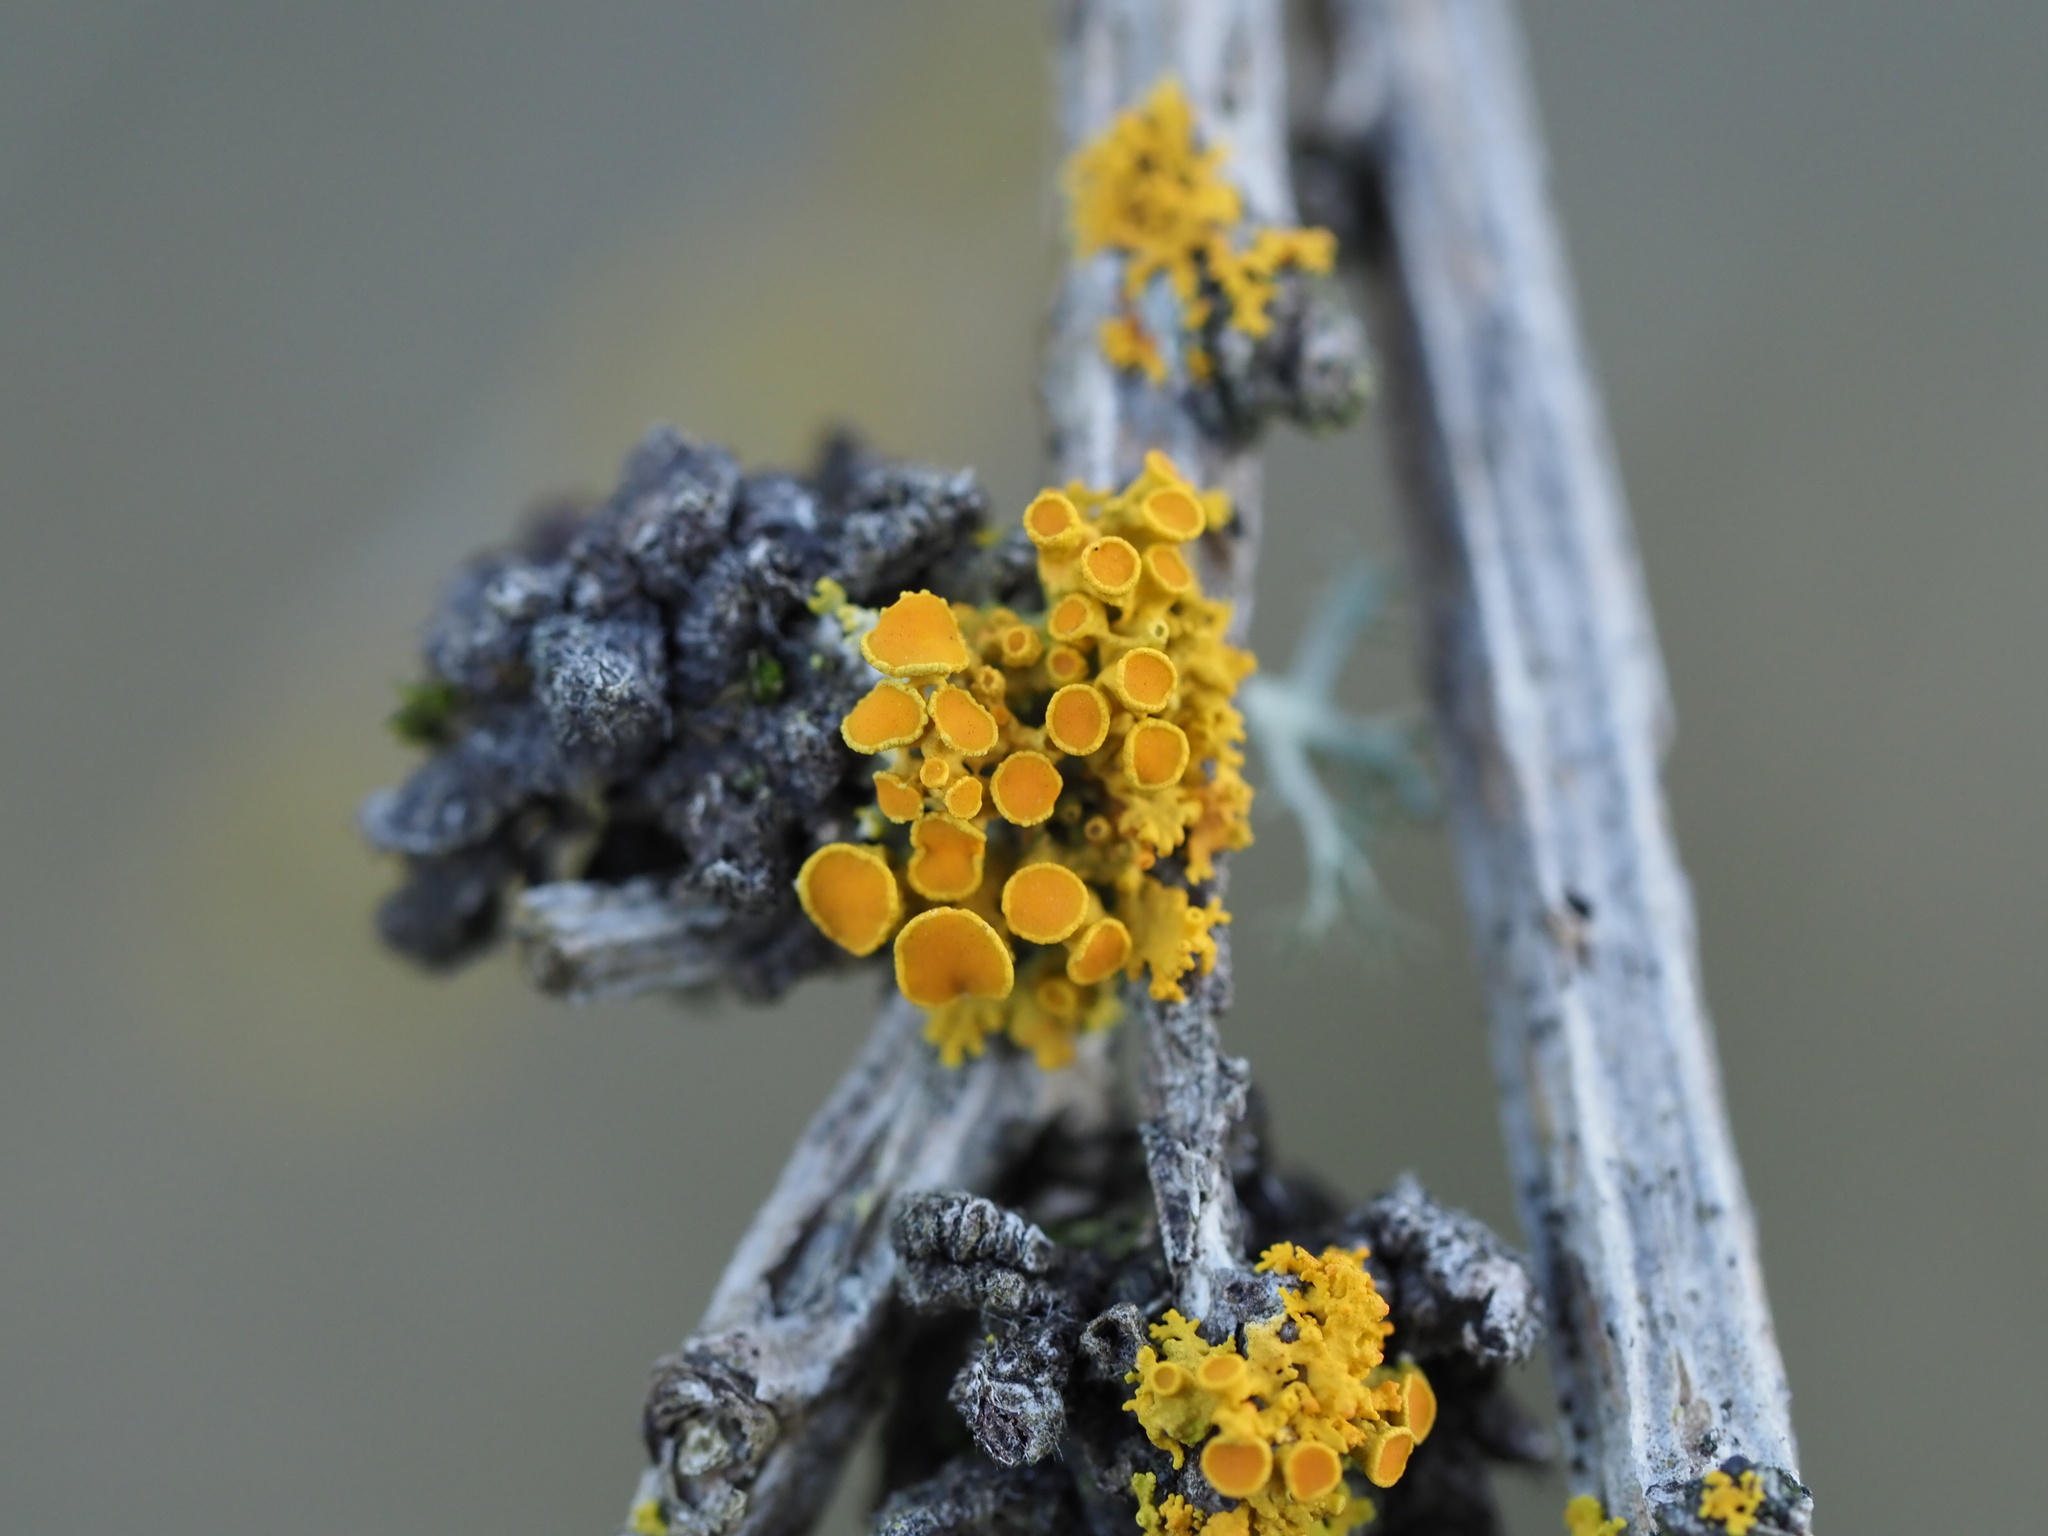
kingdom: Fungi
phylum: Ascomycota
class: Lecanoromycetes
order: Teloschistales
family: Teloschistaceae
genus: Polycauliona
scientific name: Polycauliona polycarpa
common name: Pin-cushion sunburst lichen
